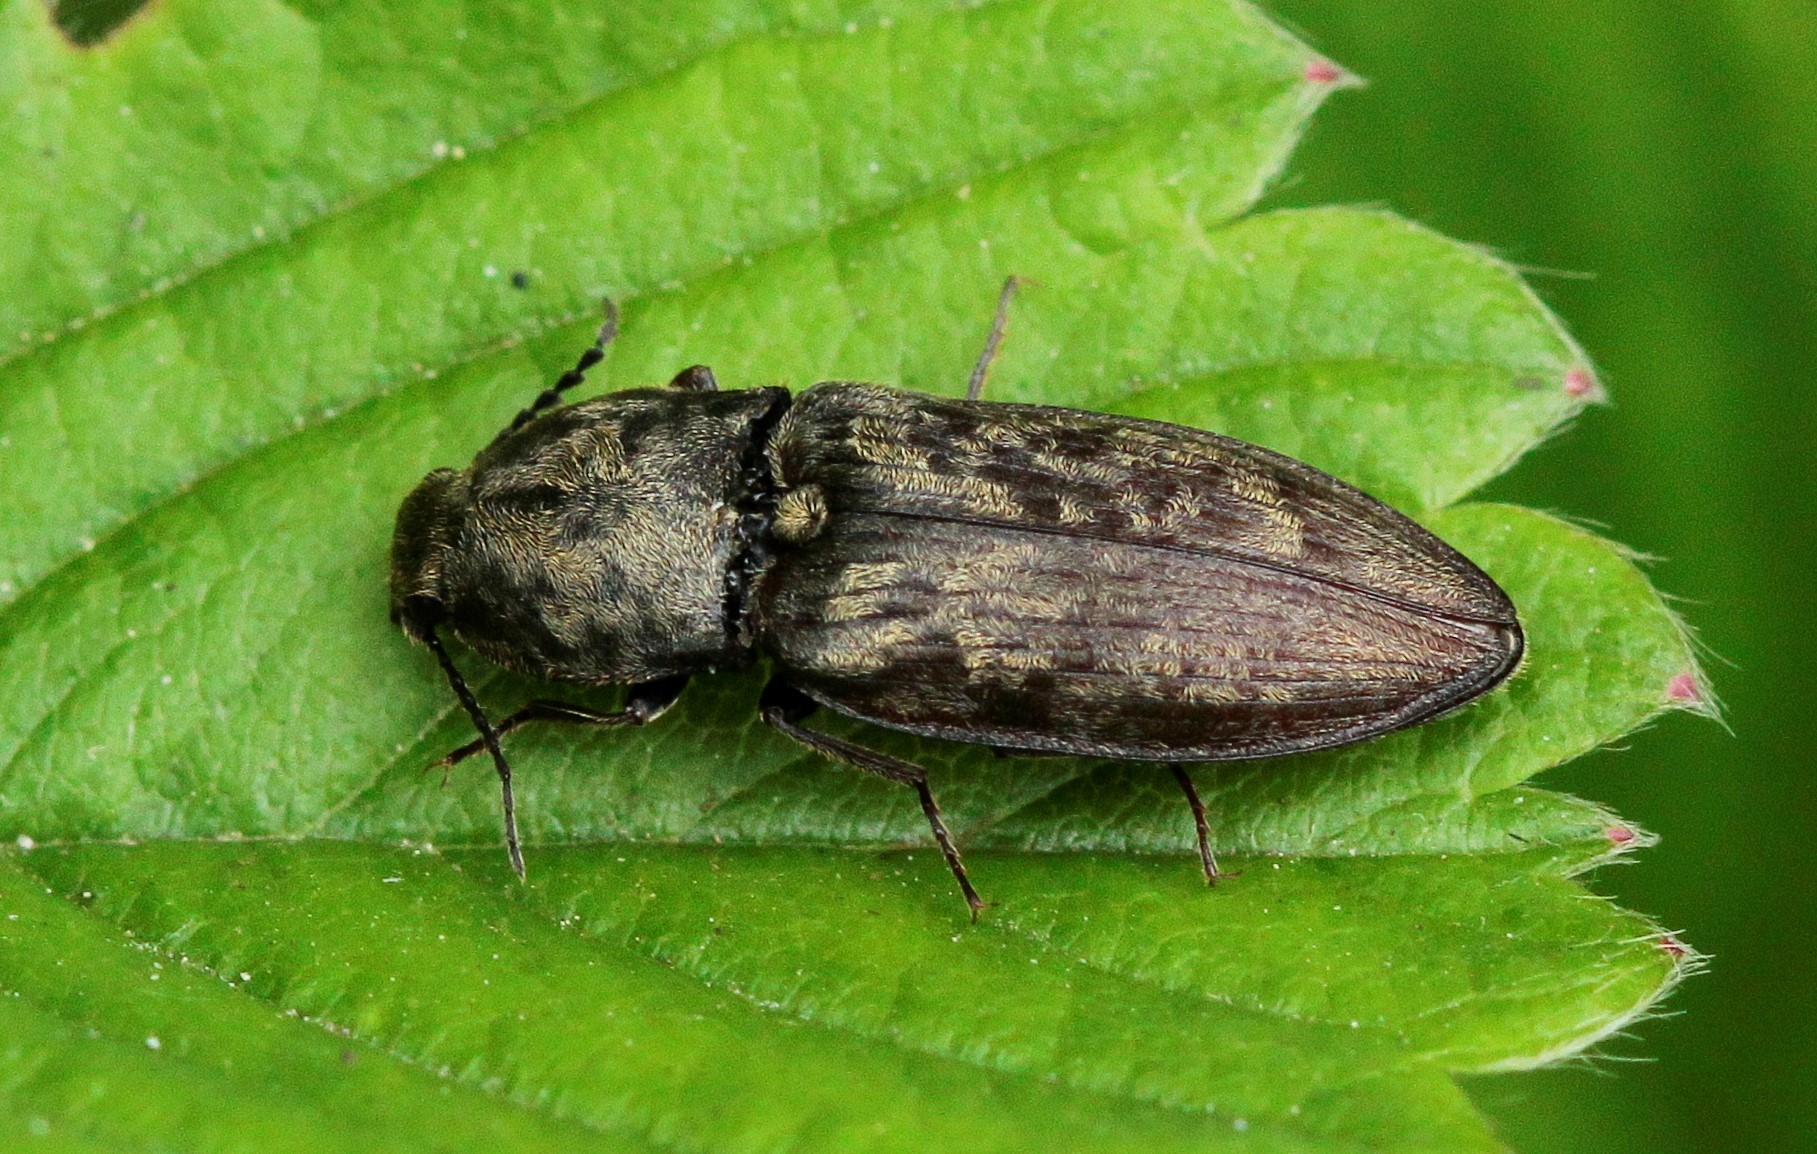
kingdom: Animalia
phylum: Arthropoda
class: Insecta
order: Coleoptera
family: Elateridae
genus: Prosternon
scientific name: Prosternon tessellatum
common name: Chequered click beetle
